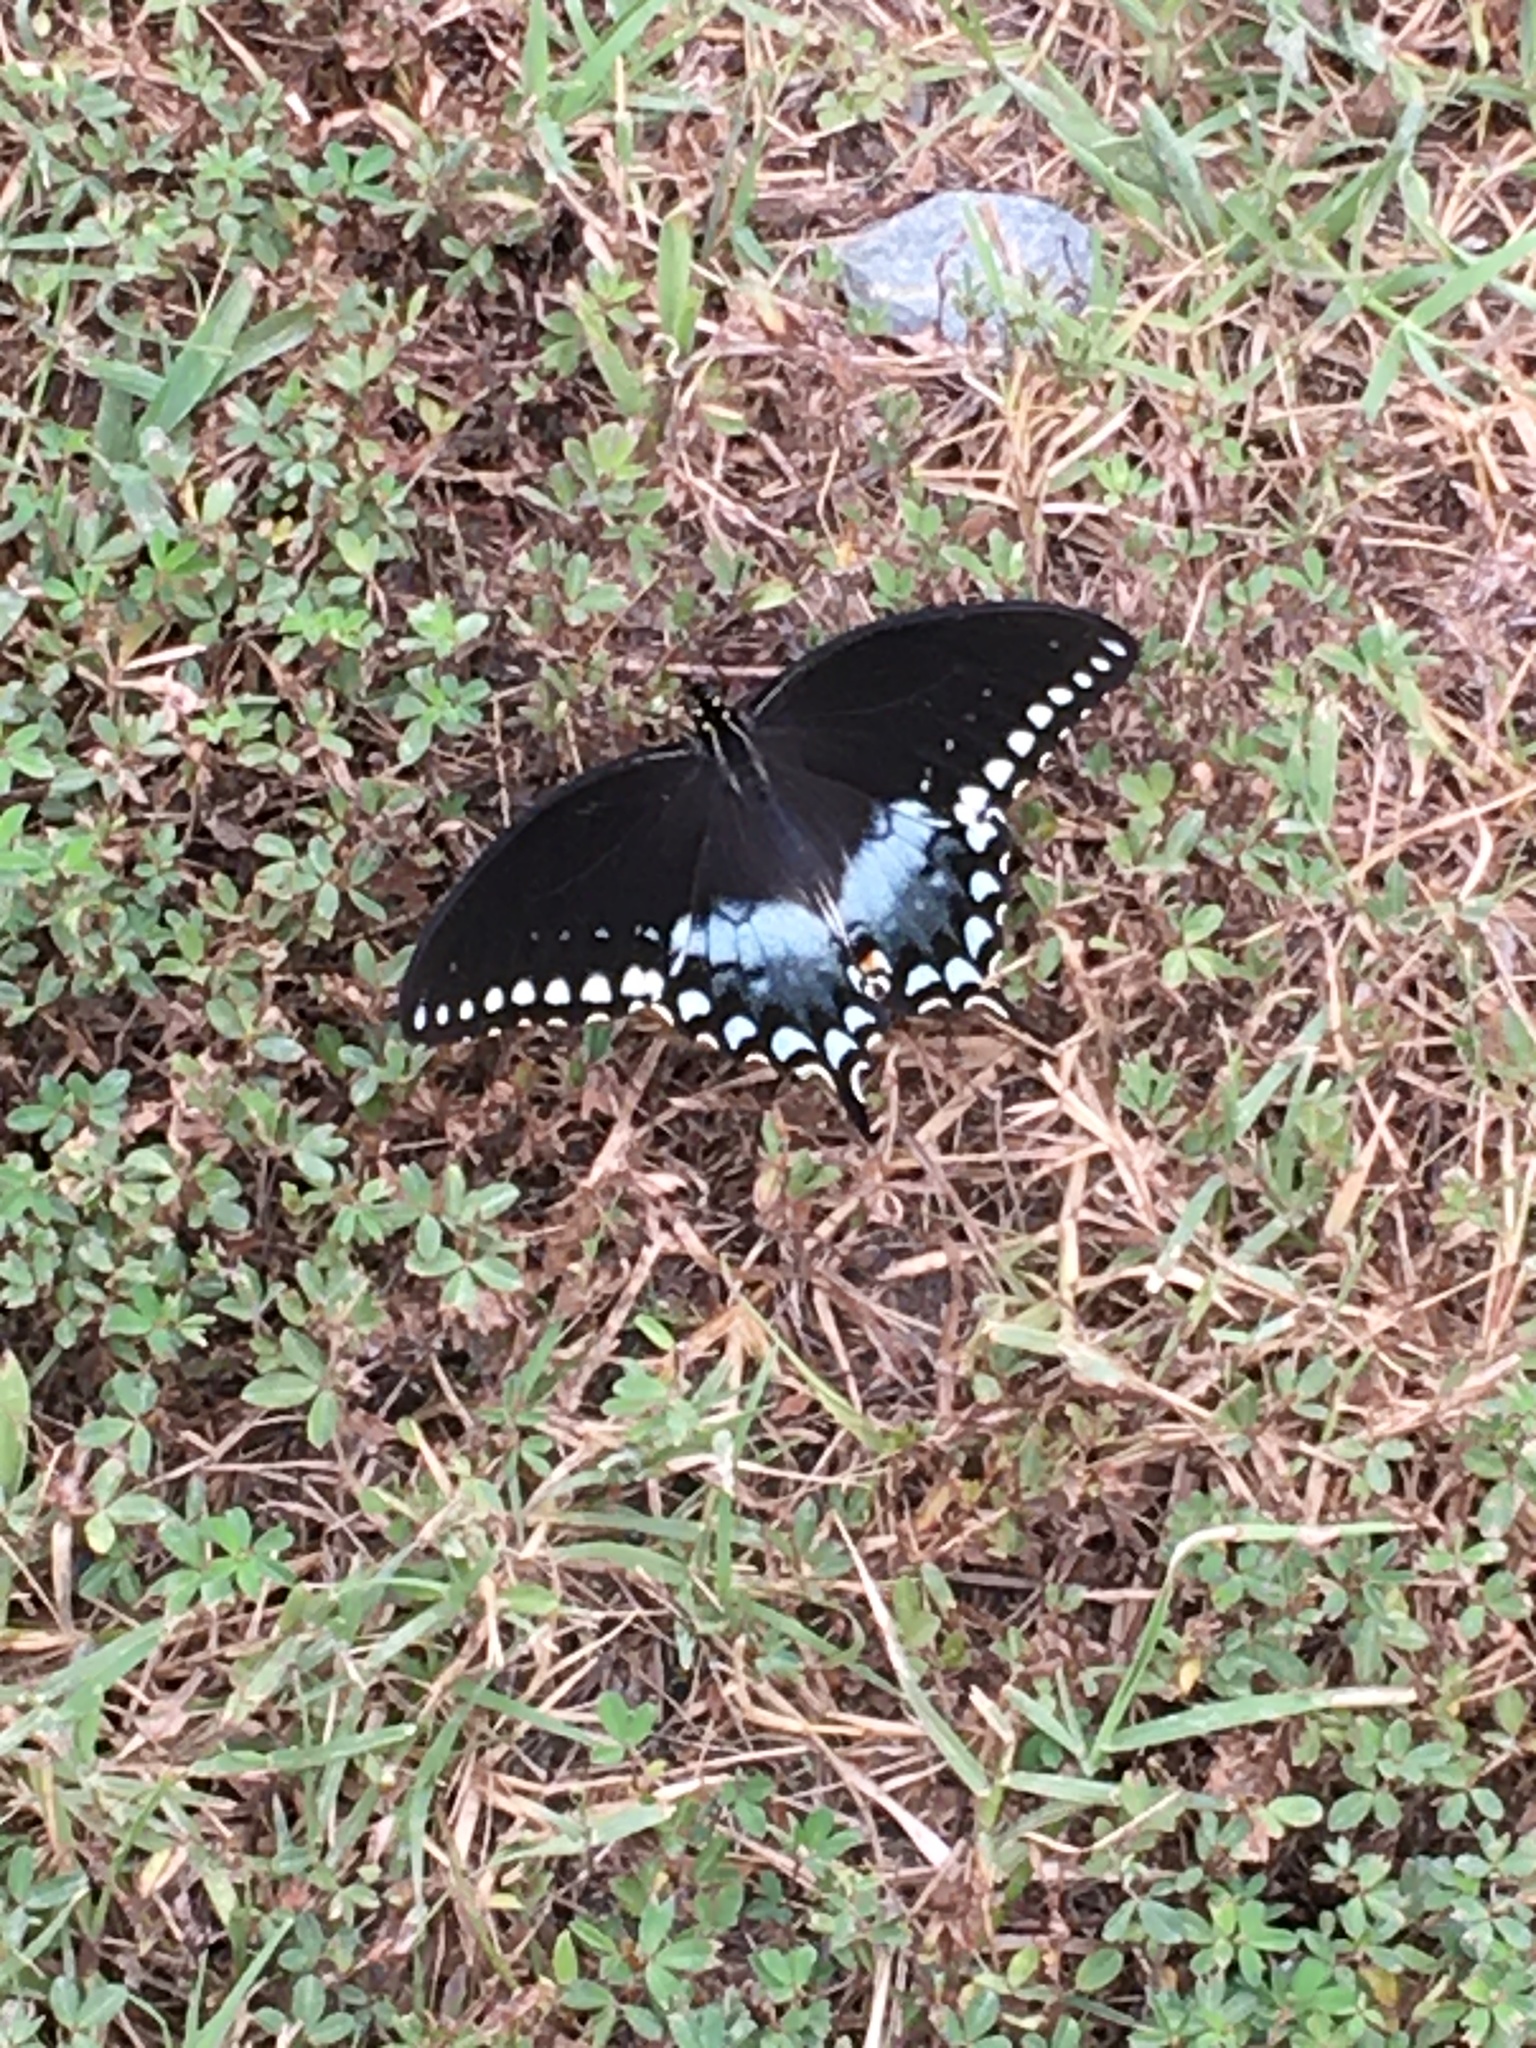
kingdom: Animalia
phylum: Arthropoda
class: Insecta
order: Lepidoptera
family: Papilionidae
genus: Papilio
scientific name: Papilio troilus
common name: Spicebush swallowtail
